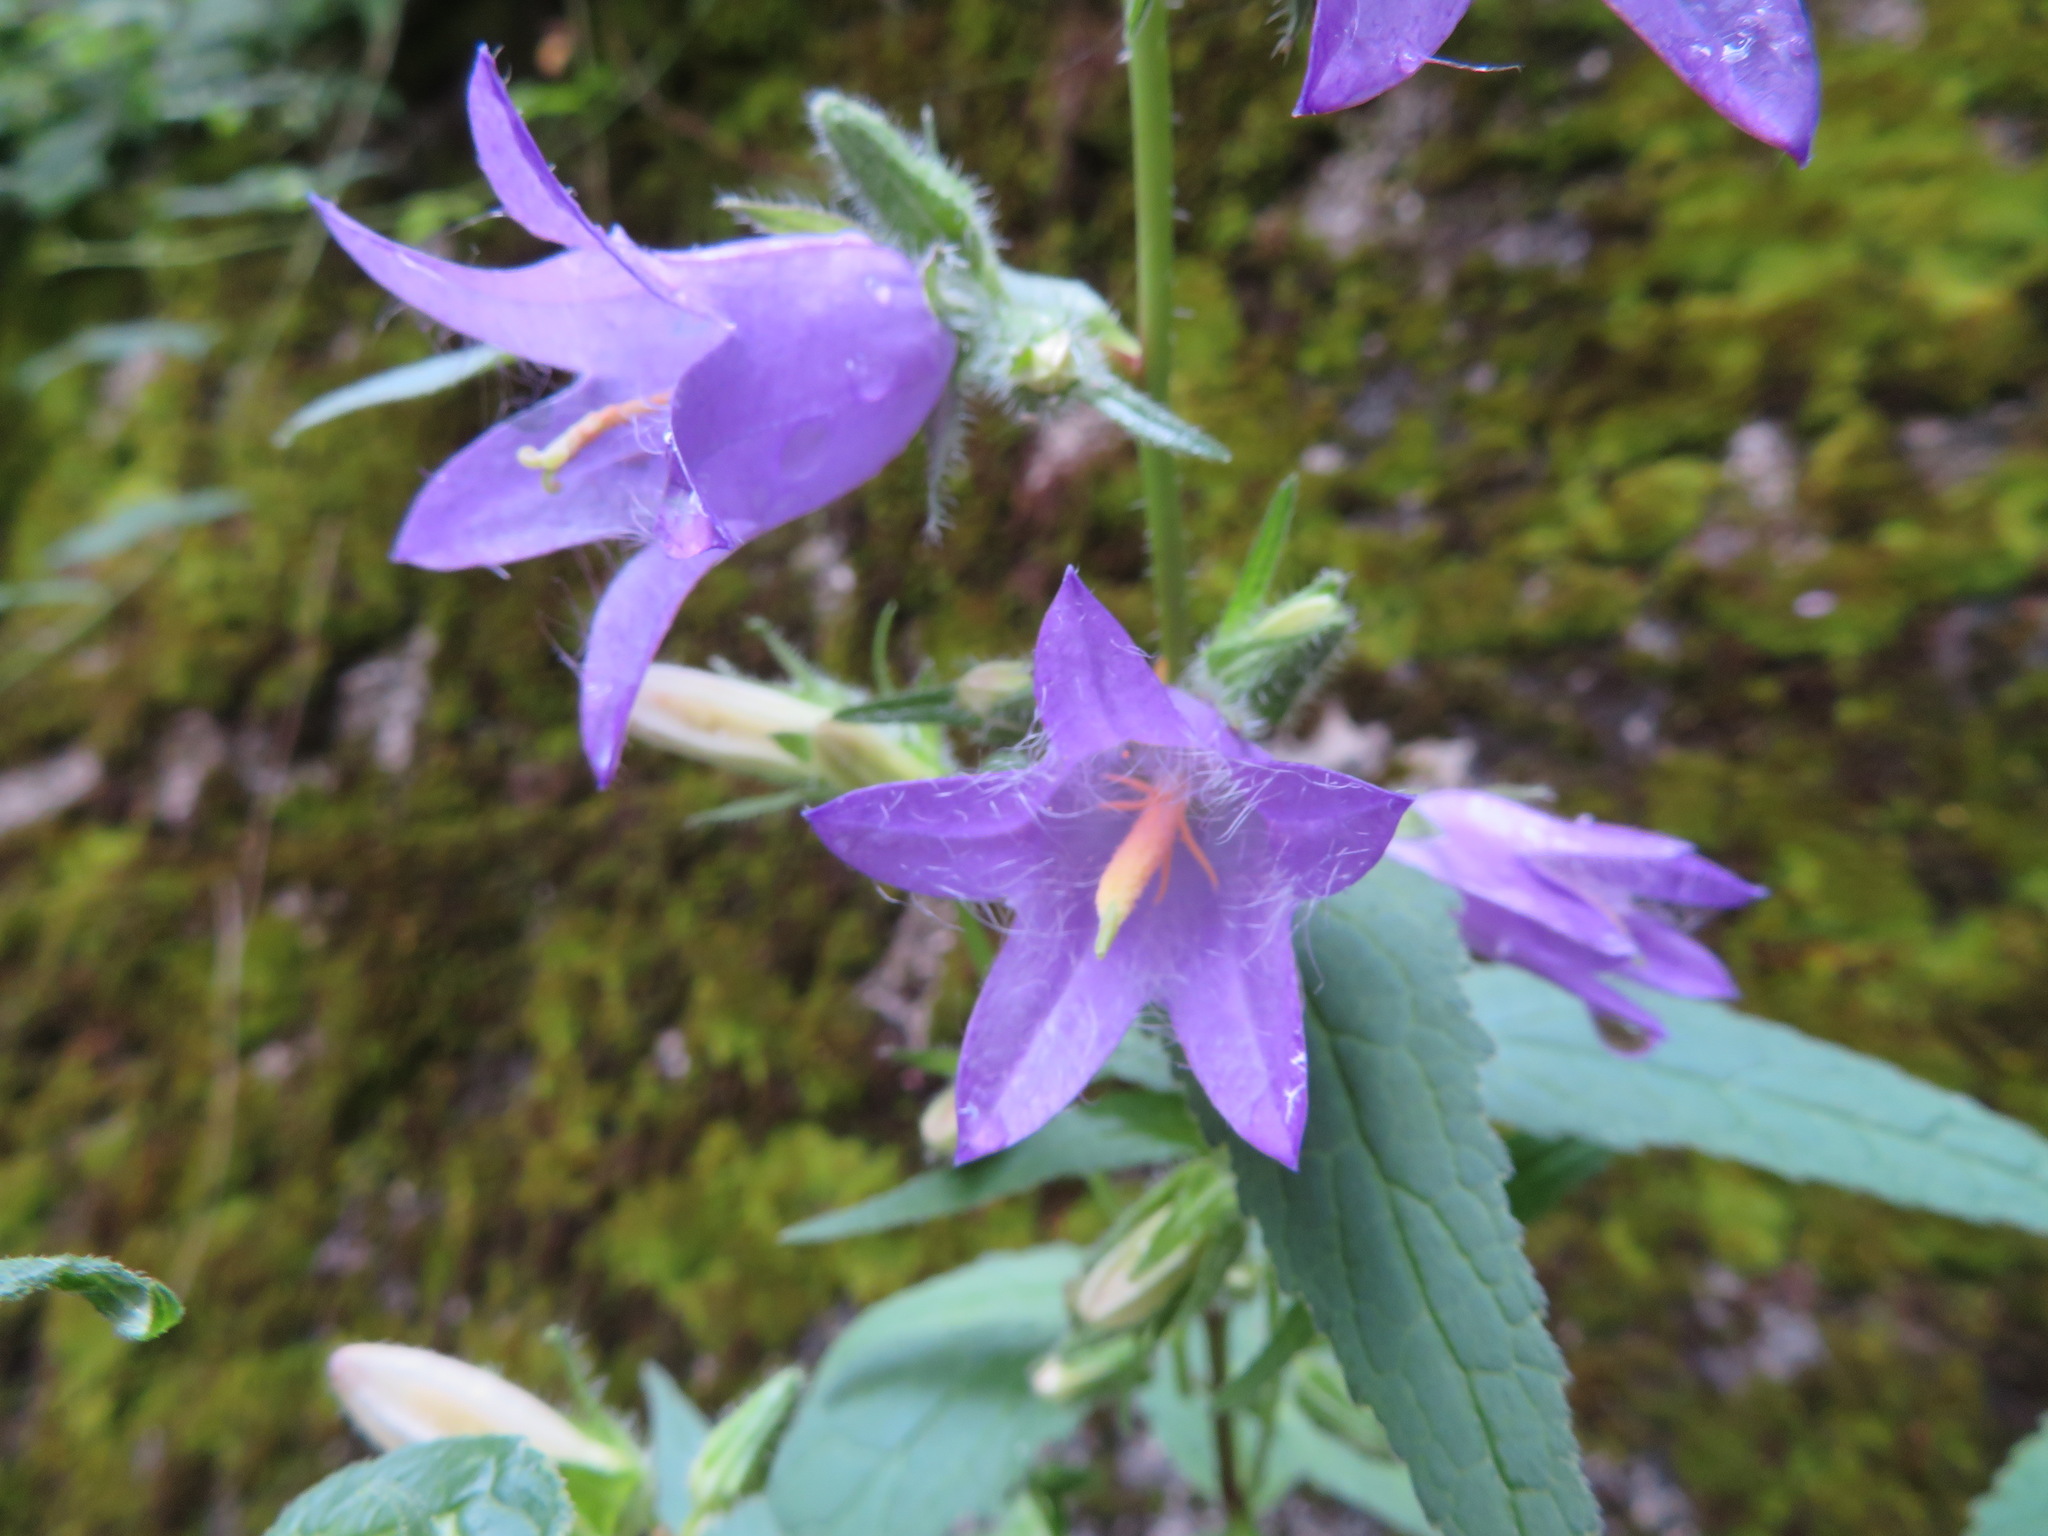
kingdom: Plantae
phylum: Tracheophyta
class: Magnoliopsida
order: Asterales
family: Campanulaceae
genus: Campanula
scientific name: Campanula trachelium
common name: Nettle-leaved bellflower
